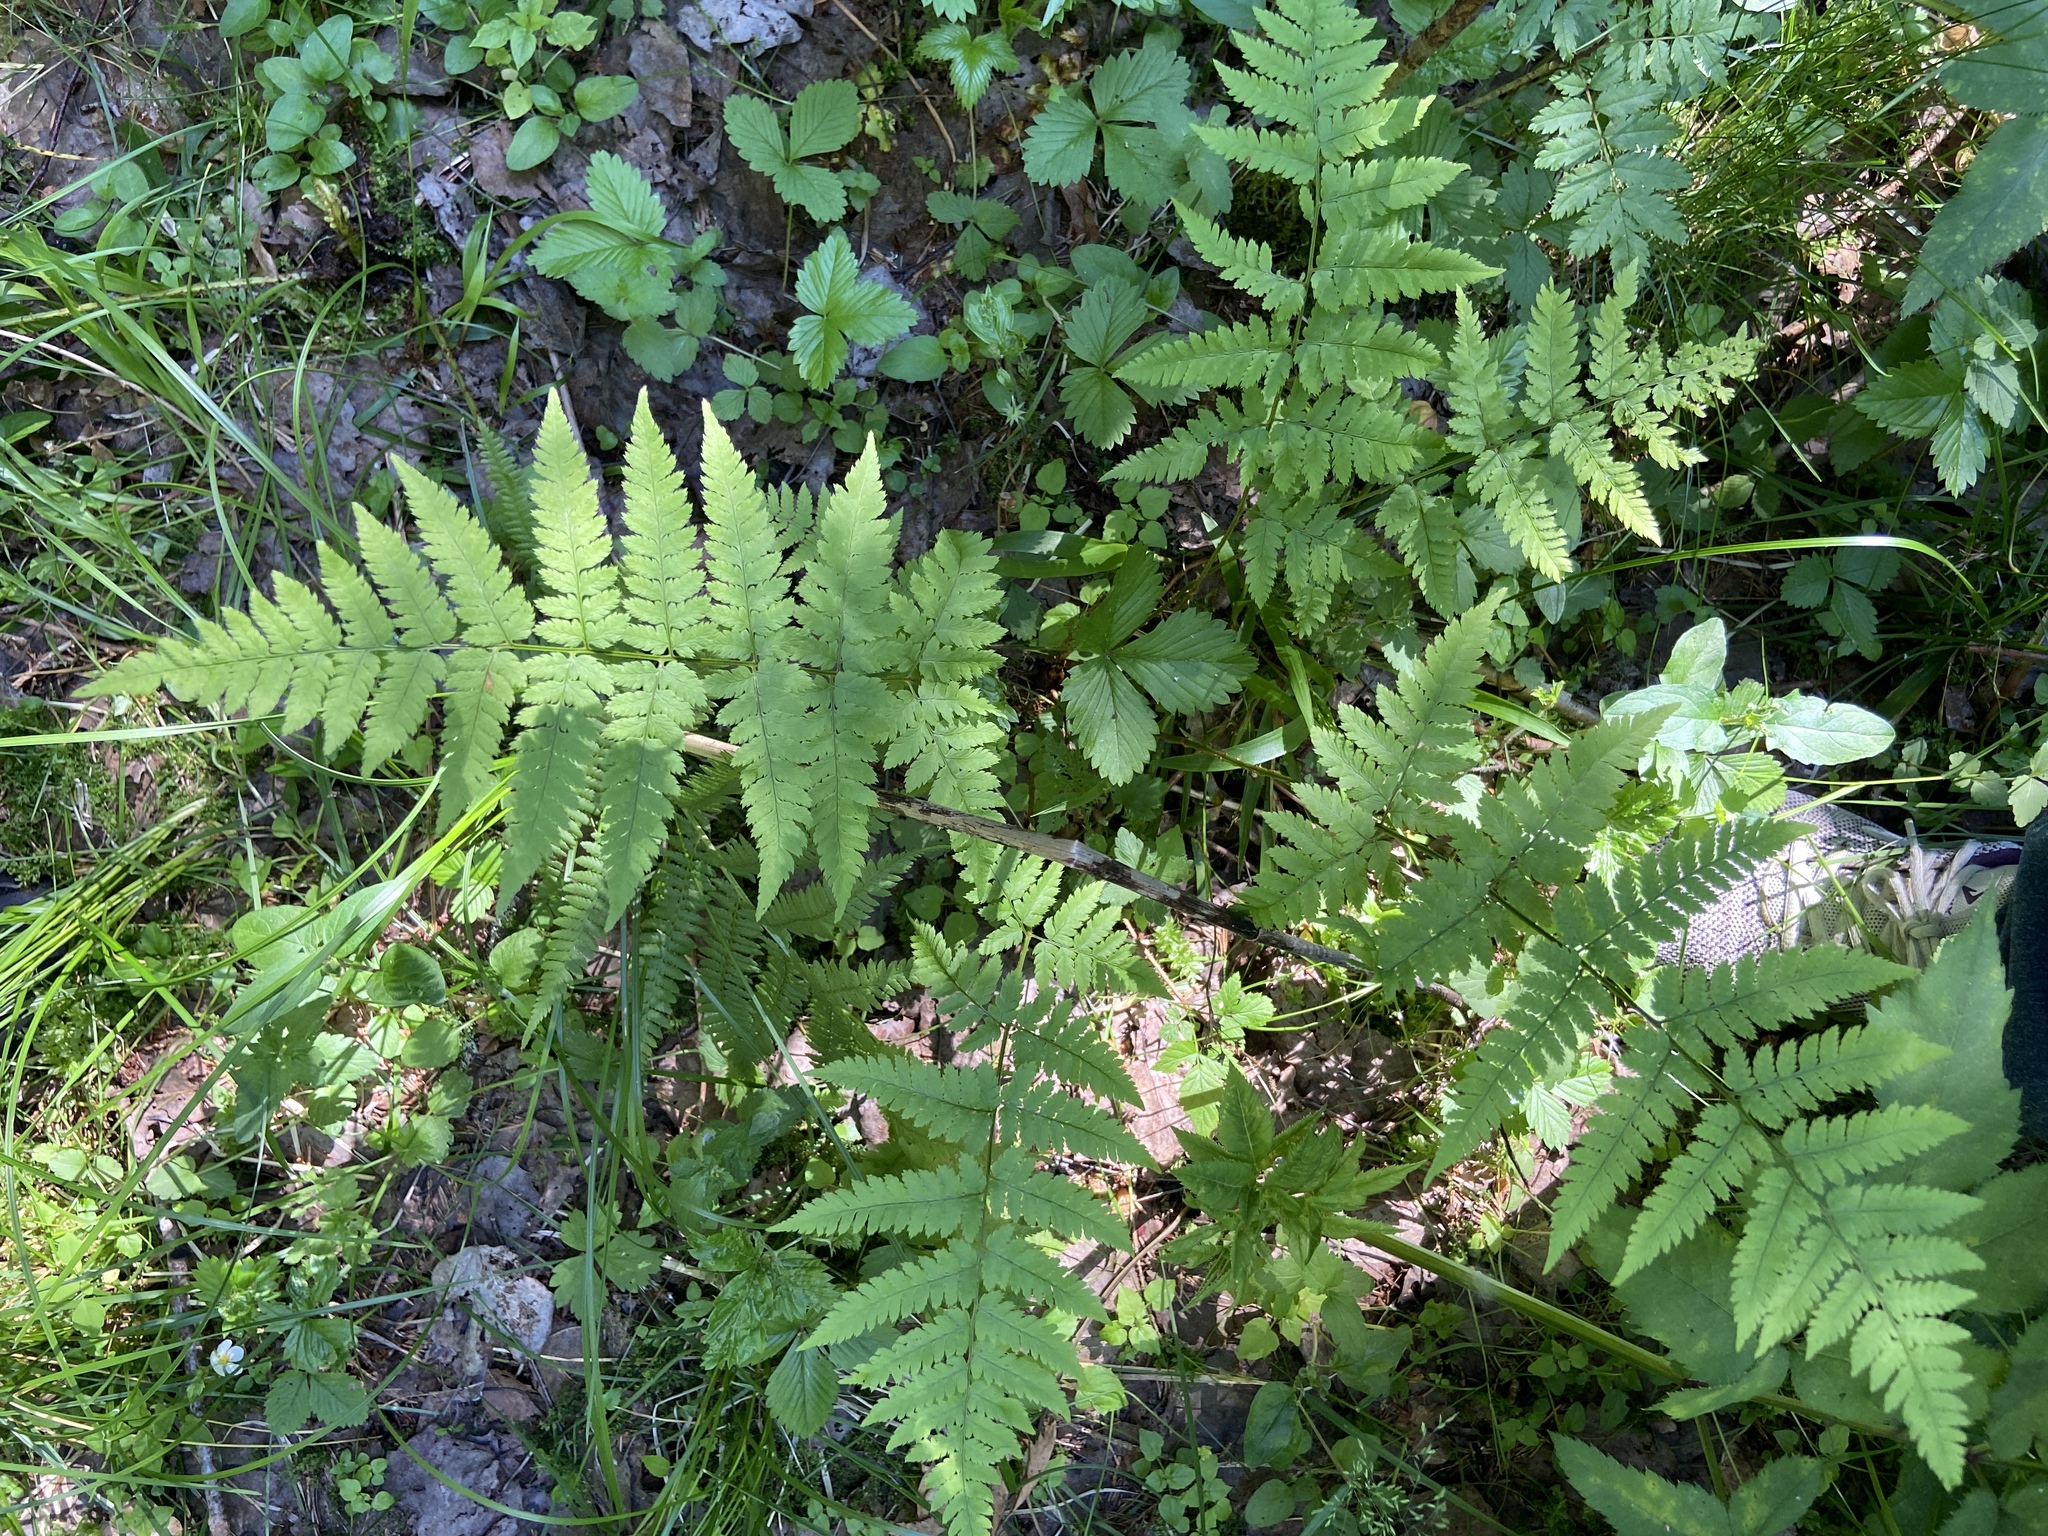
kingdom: Plantae
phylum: Tracheophyta
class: Polypodiopsida
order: Polypodiales
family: Dryopteridaceae
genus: Dryopteris
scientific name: Dryopteris carthusiana
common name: Narrow buckler-fern
